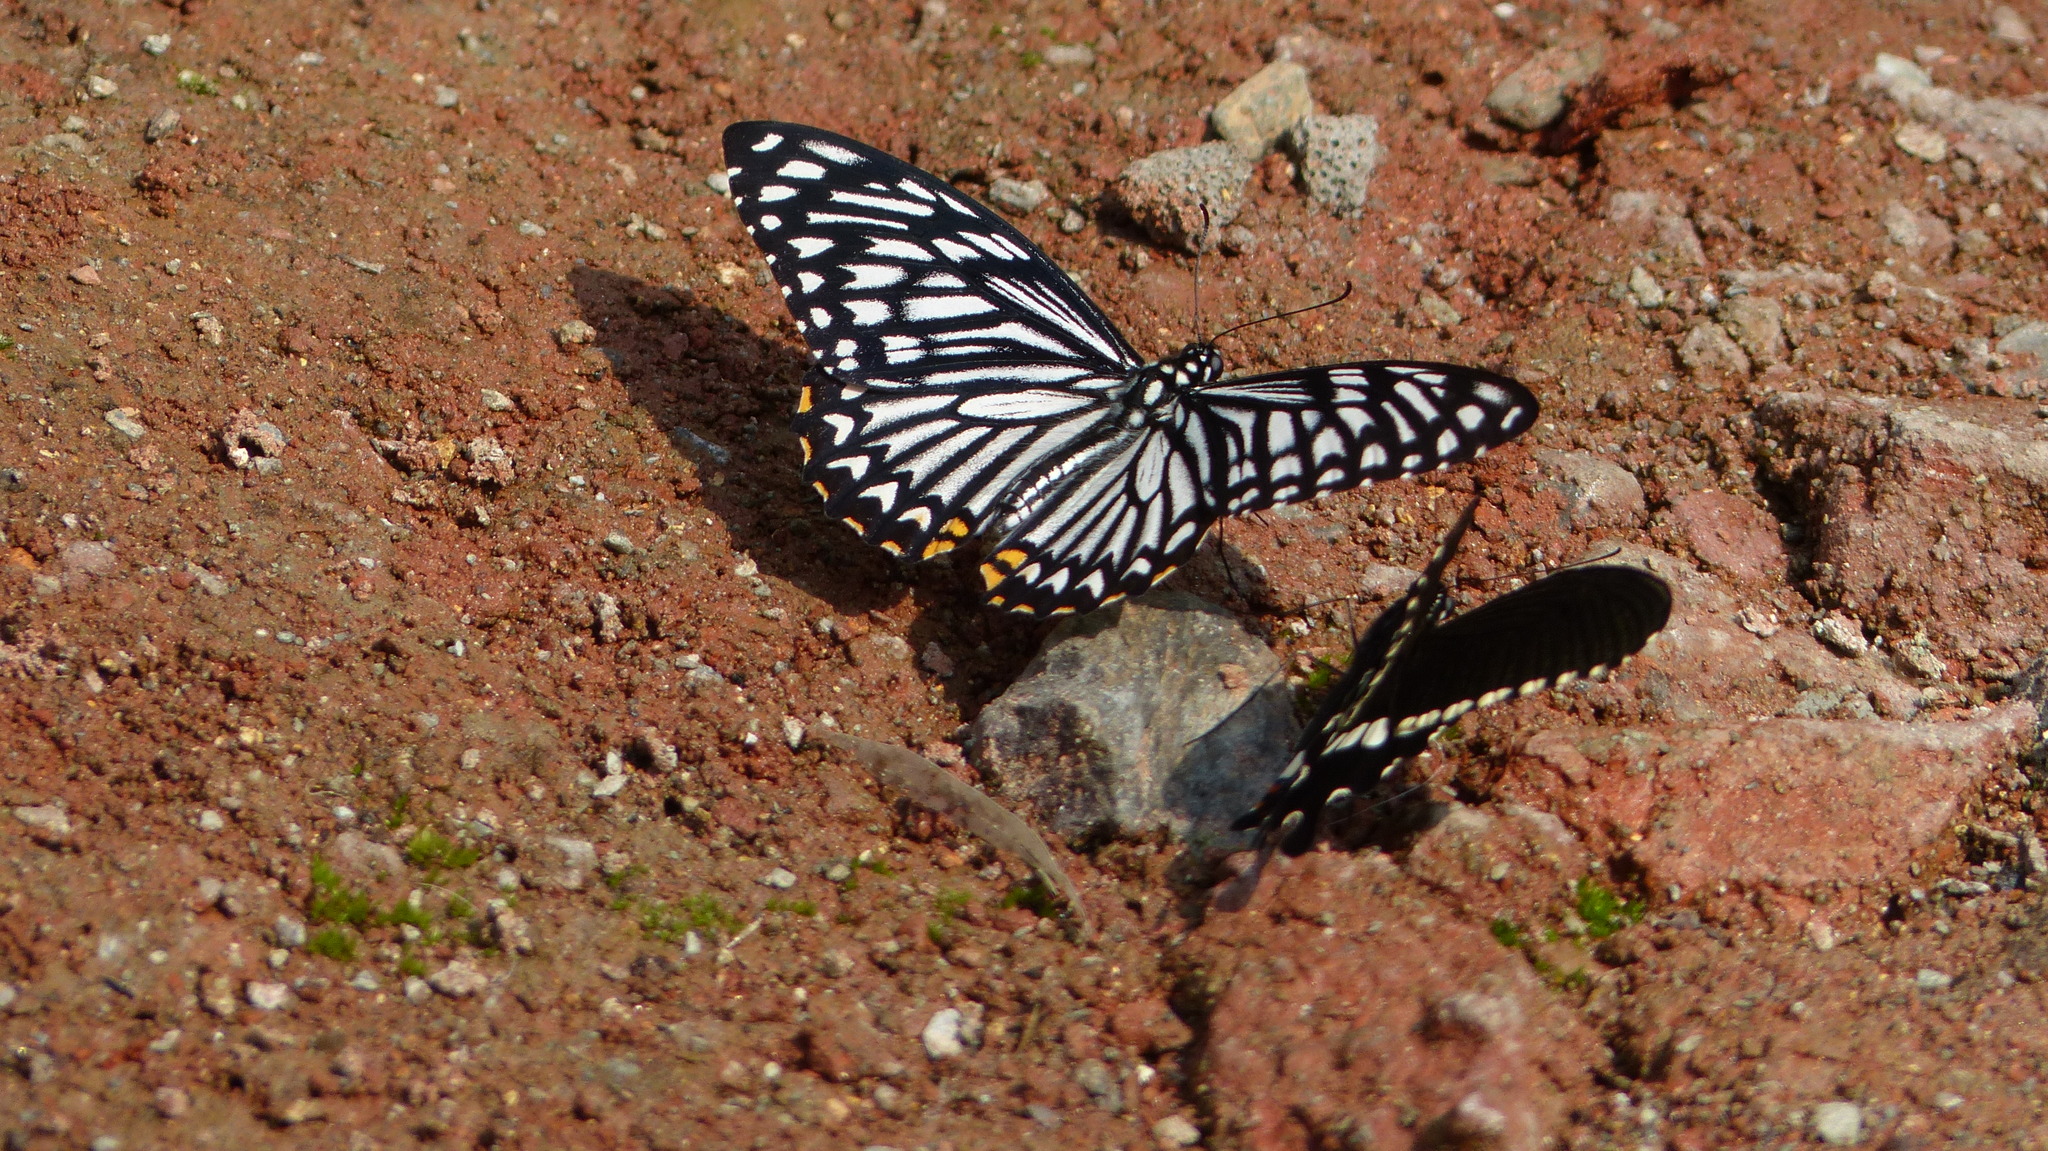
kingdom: Animalia
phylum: Arthropoda
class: Insecta
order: Lepidoptera
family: Papilionidae
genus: Chilasa
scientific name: Chilasa clytia
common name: Common mime
